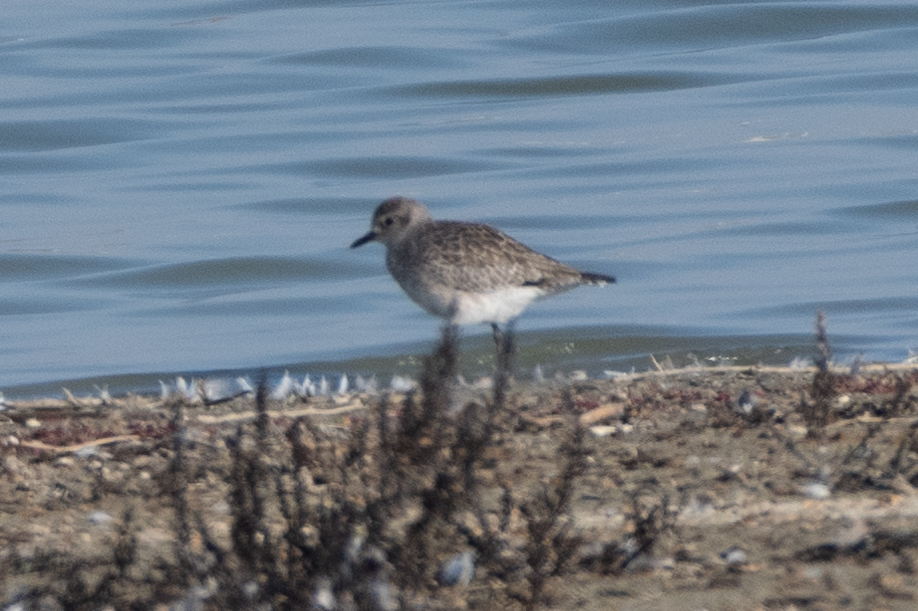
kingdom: Animalia
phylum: Chordata
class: Aves
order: Charadriiformes
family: Charadriidae
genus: Pluvialis
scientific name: Pluvialis squatarola
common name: Grey plover
